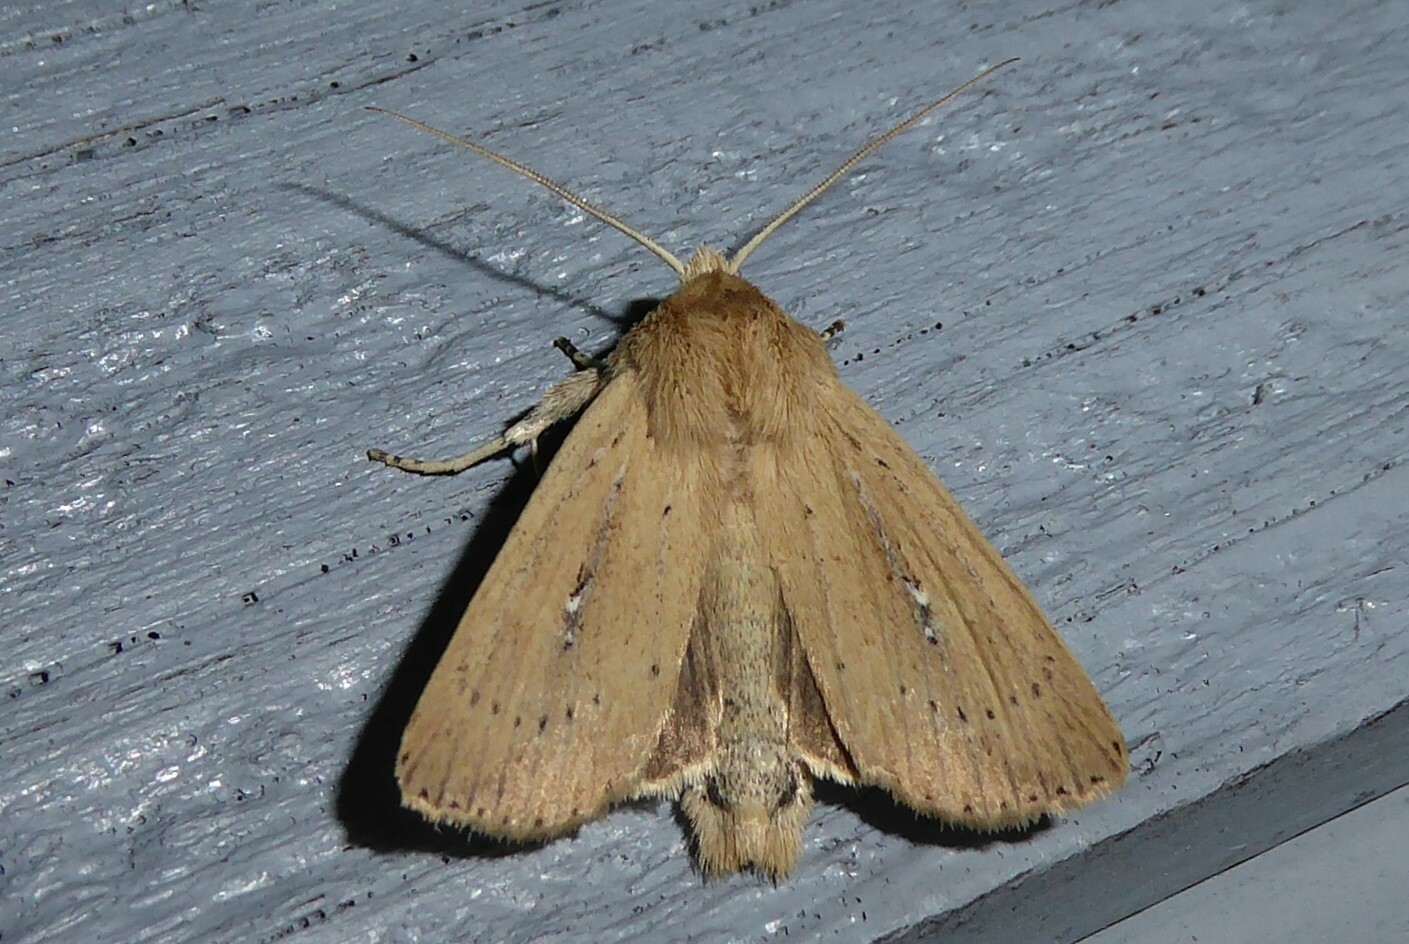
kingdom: Animalia
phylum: Arthropoda
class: Insecta
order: Lepidoptera
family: Noctuidae
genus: Ichneutica
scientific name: Ichneutica
